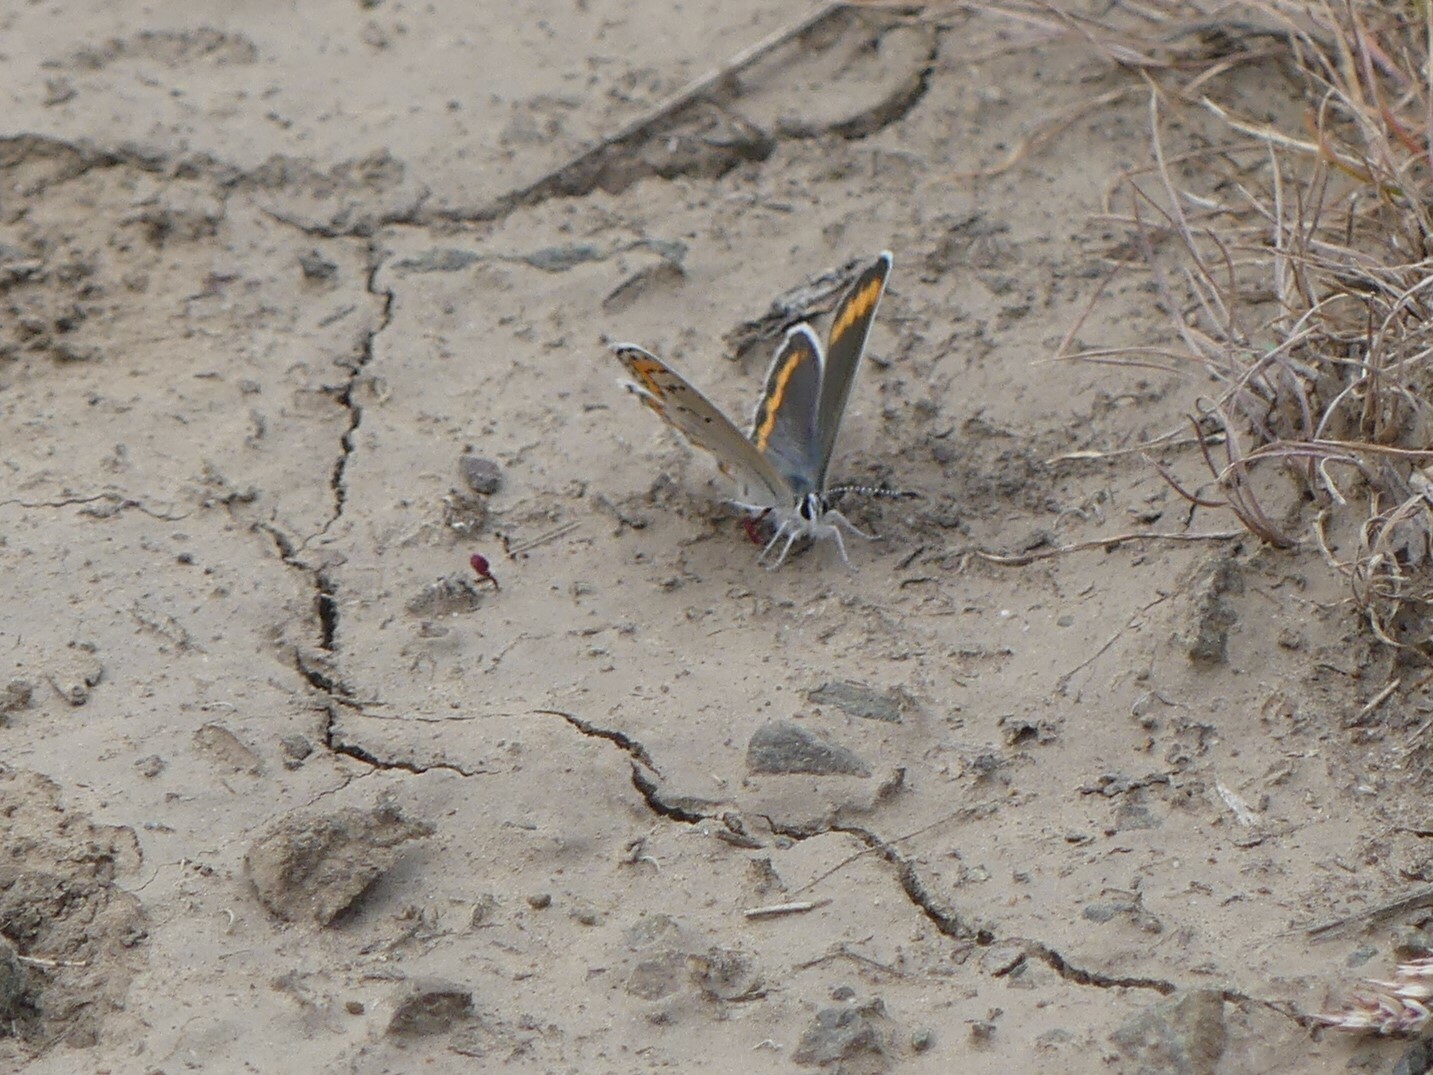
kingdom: Animalia
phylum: Arthropoda
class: Insecta
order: Lepidoptera
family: Lycaenidae
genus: Lycaeides
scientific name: Lycaeides melissa
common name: Melissa blue
